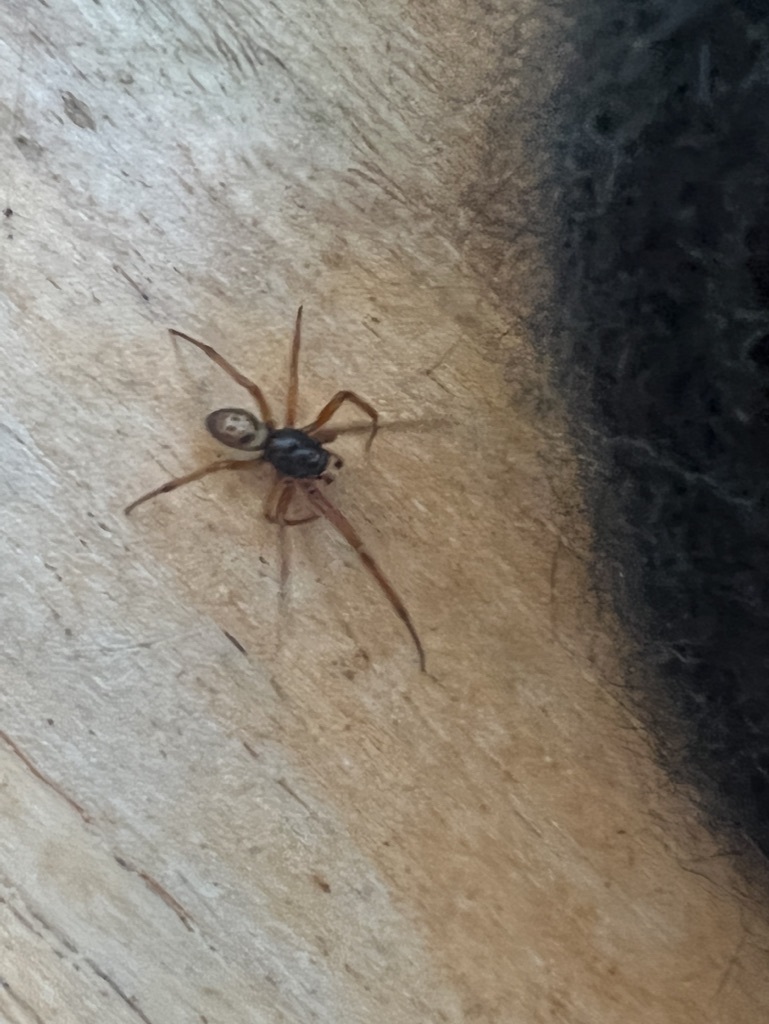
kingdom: Animalia
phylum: Arthropoda
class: Arachnida
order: Araneae
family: Theridiidae
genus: Steatoda
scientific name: Steatoda nobilis
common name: Cobweb weaver
